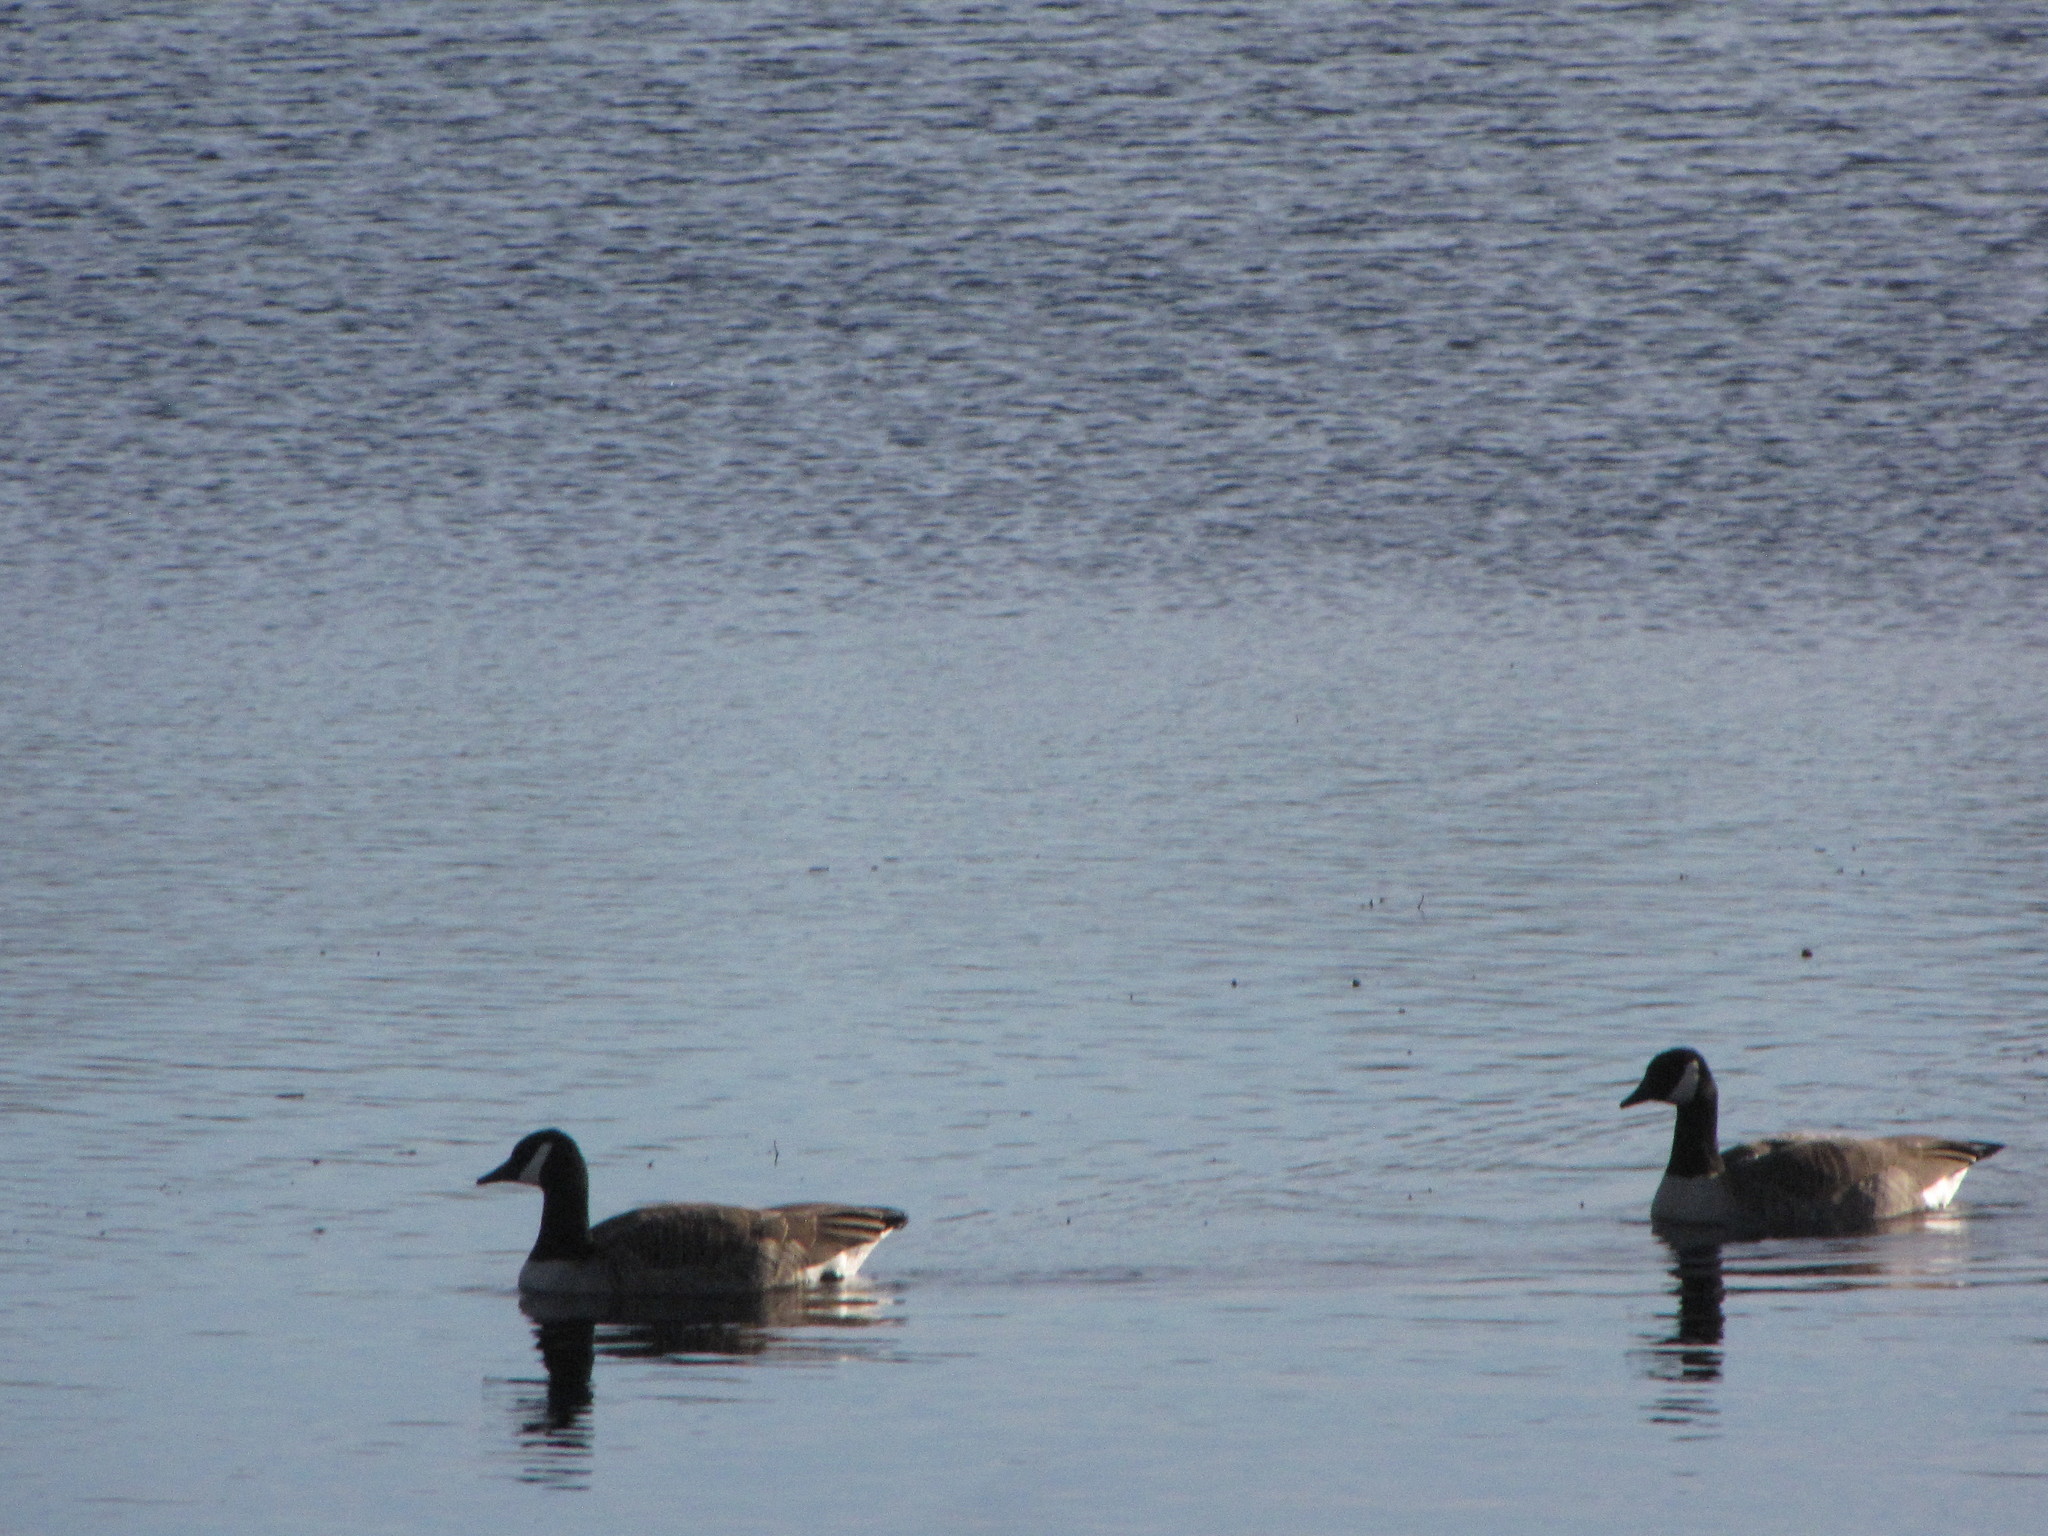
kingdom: Animalia
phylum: Chordata
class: Aves
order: Anseriformes
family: Anatidae
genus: Branta
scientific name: Branta canadensis
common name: Canada goose
